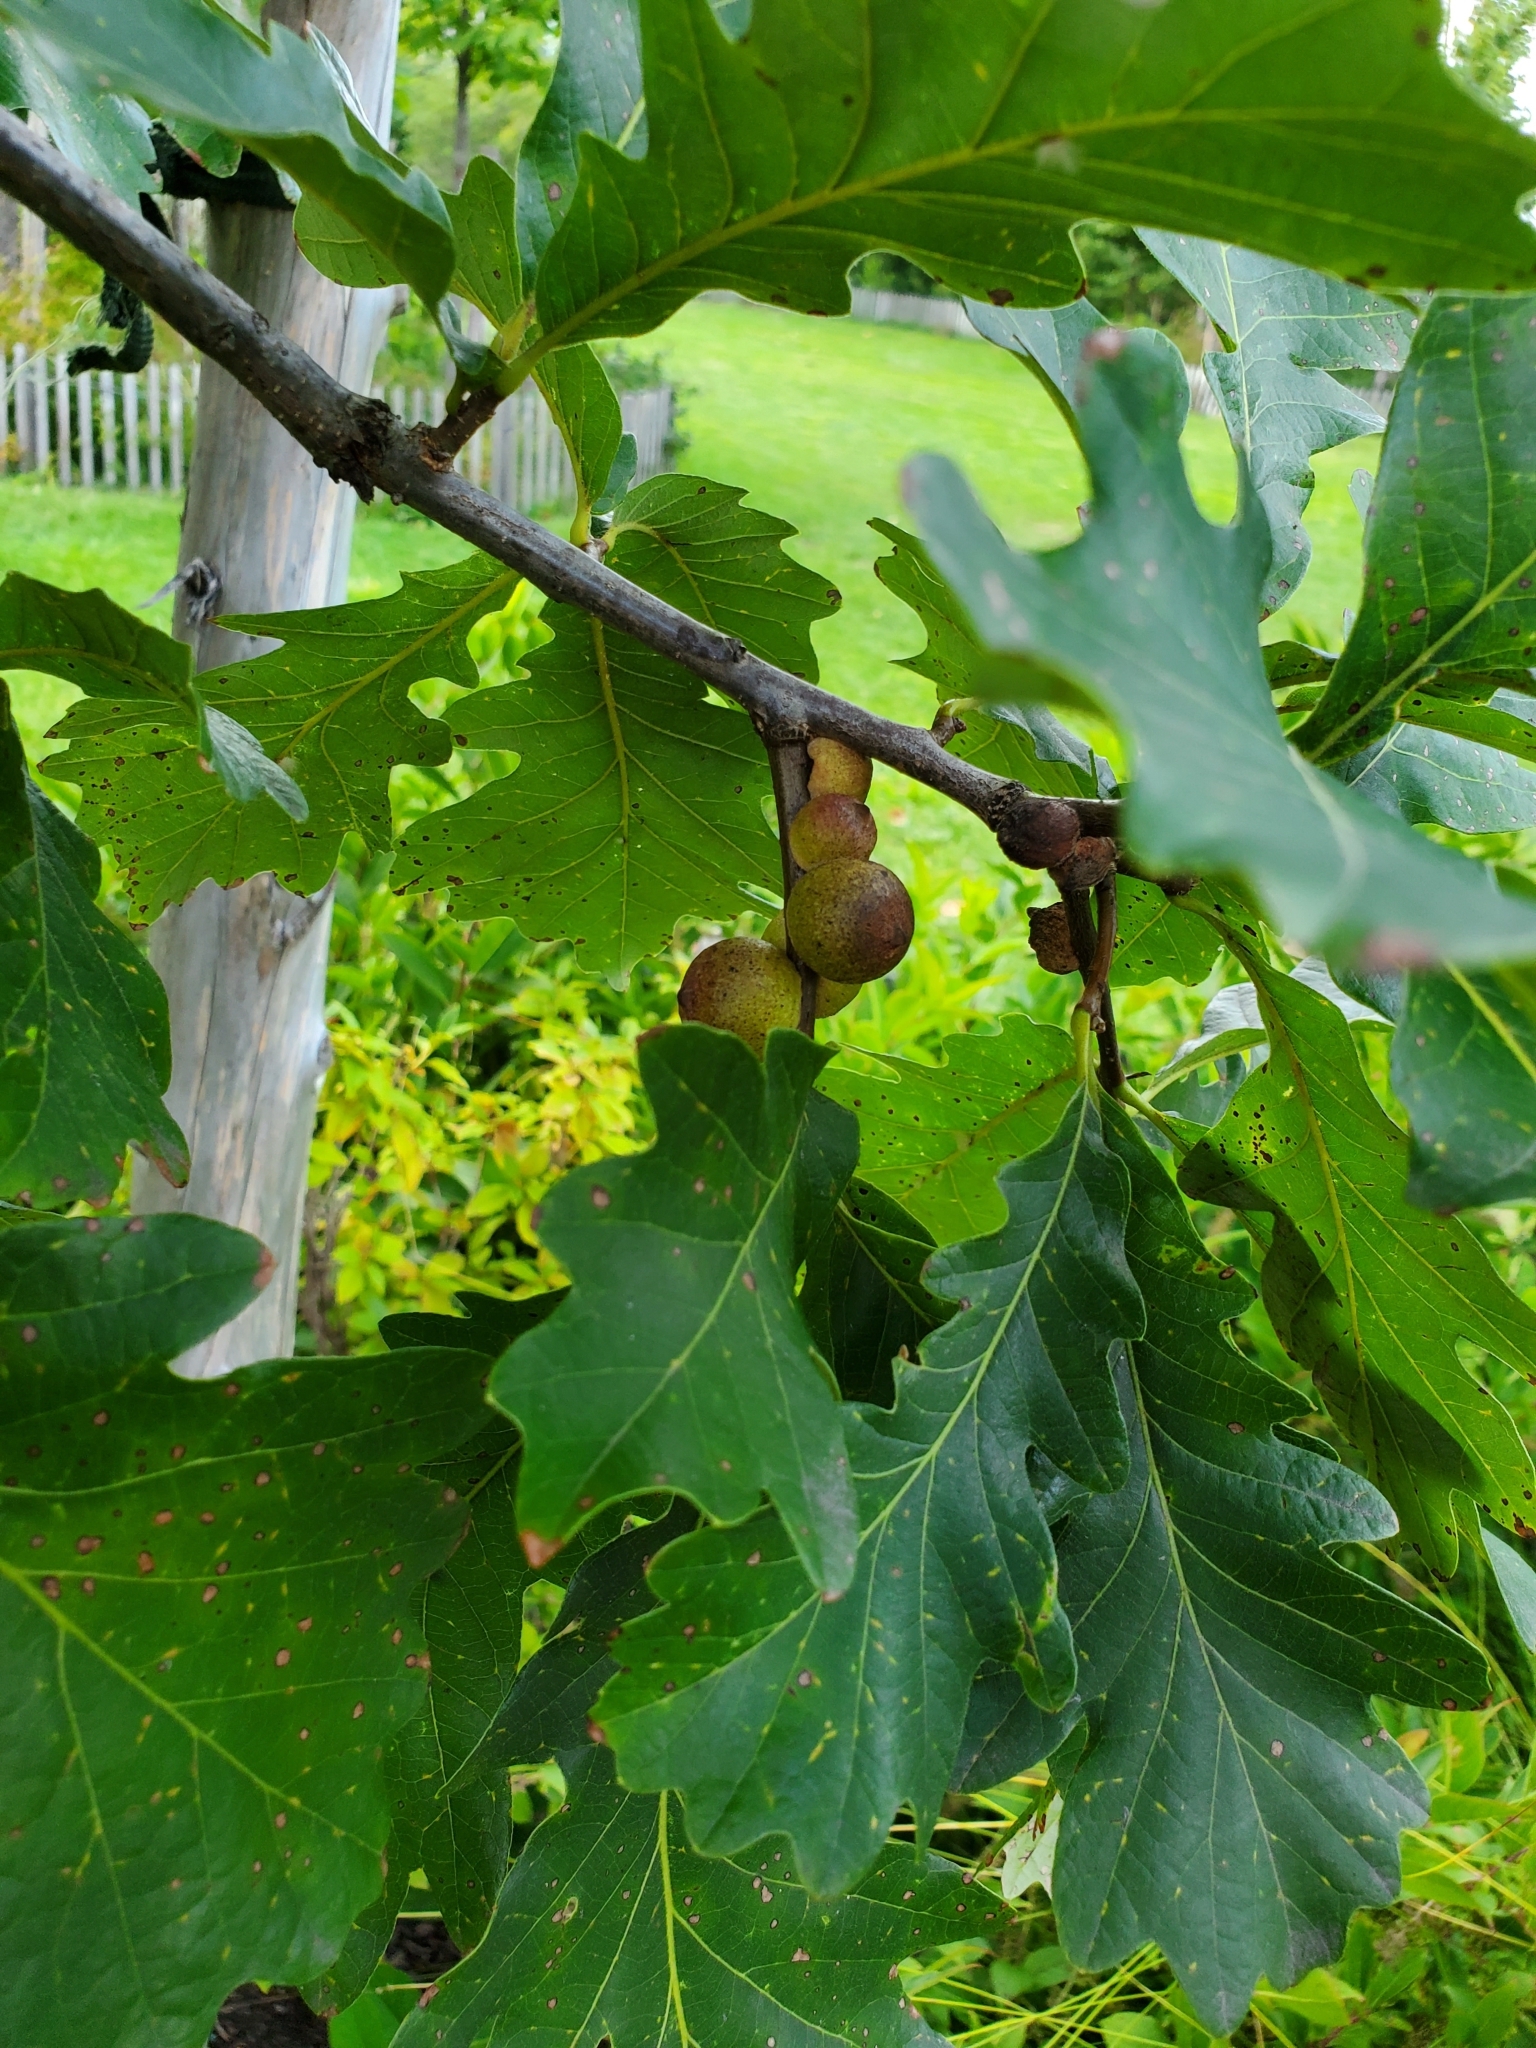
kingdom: Animalia
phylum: Arthropoda
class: Insecta
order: Hymenoptera
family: Crabronidae
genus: Sphecius
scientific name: Sphecius speciosus
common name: Cicada killer
